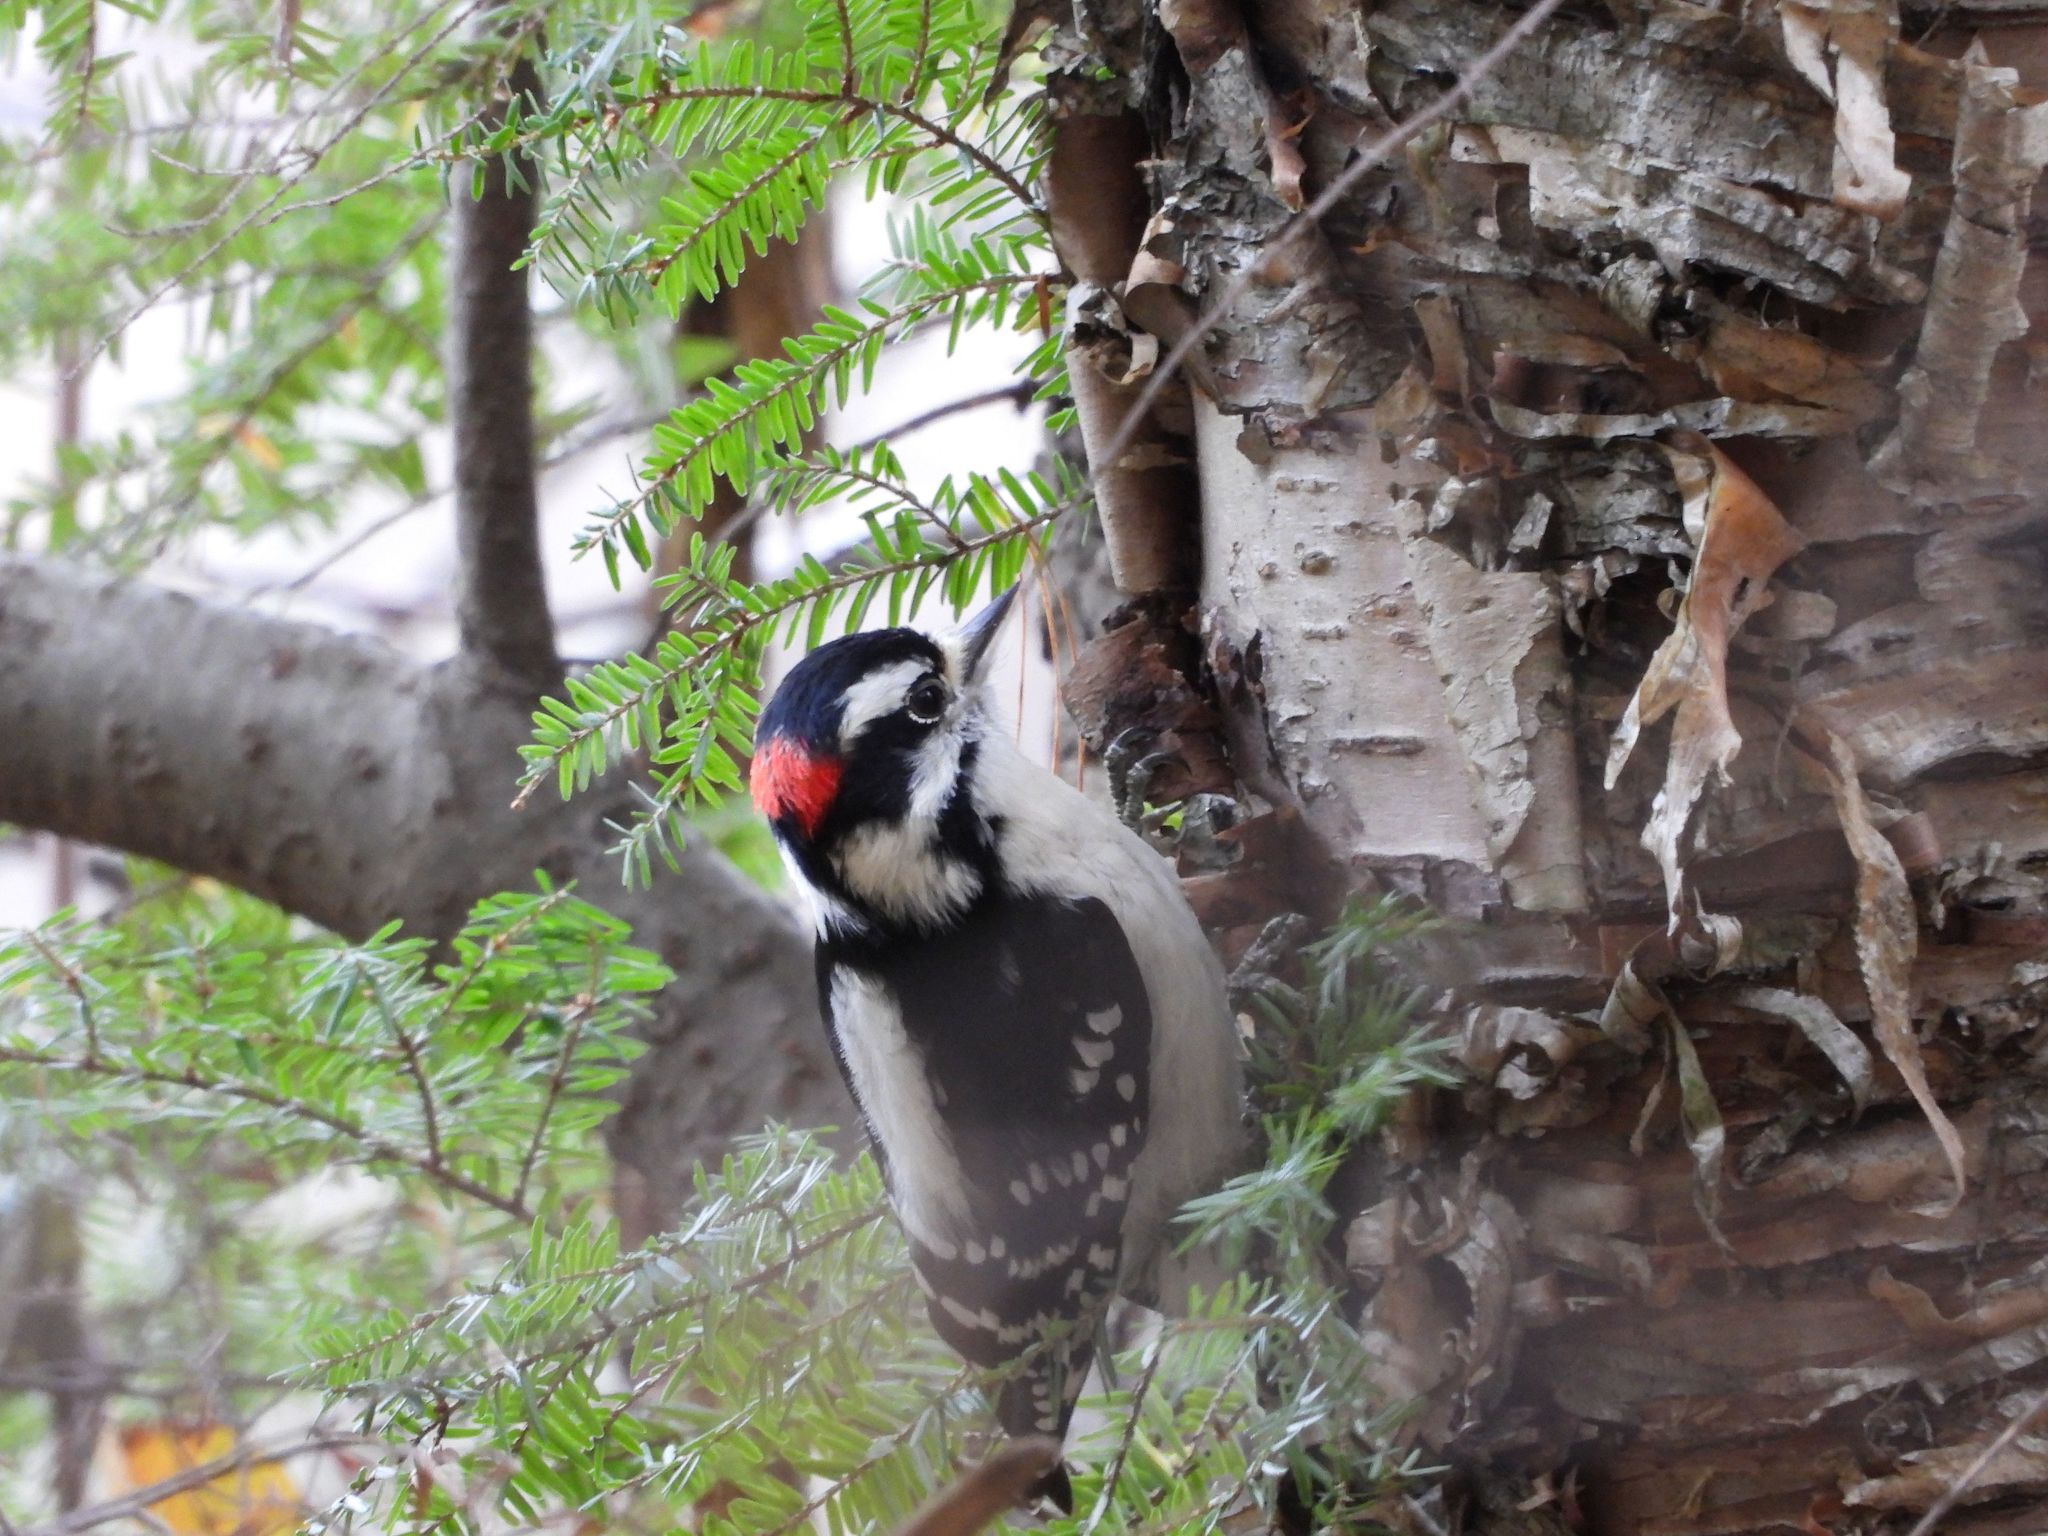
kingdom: Animalia
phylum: Chordata
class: Aves
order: Piciformes
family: Picidae
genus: Dryobates
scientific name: Dryobates pubescens
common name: Downy woodpecker
